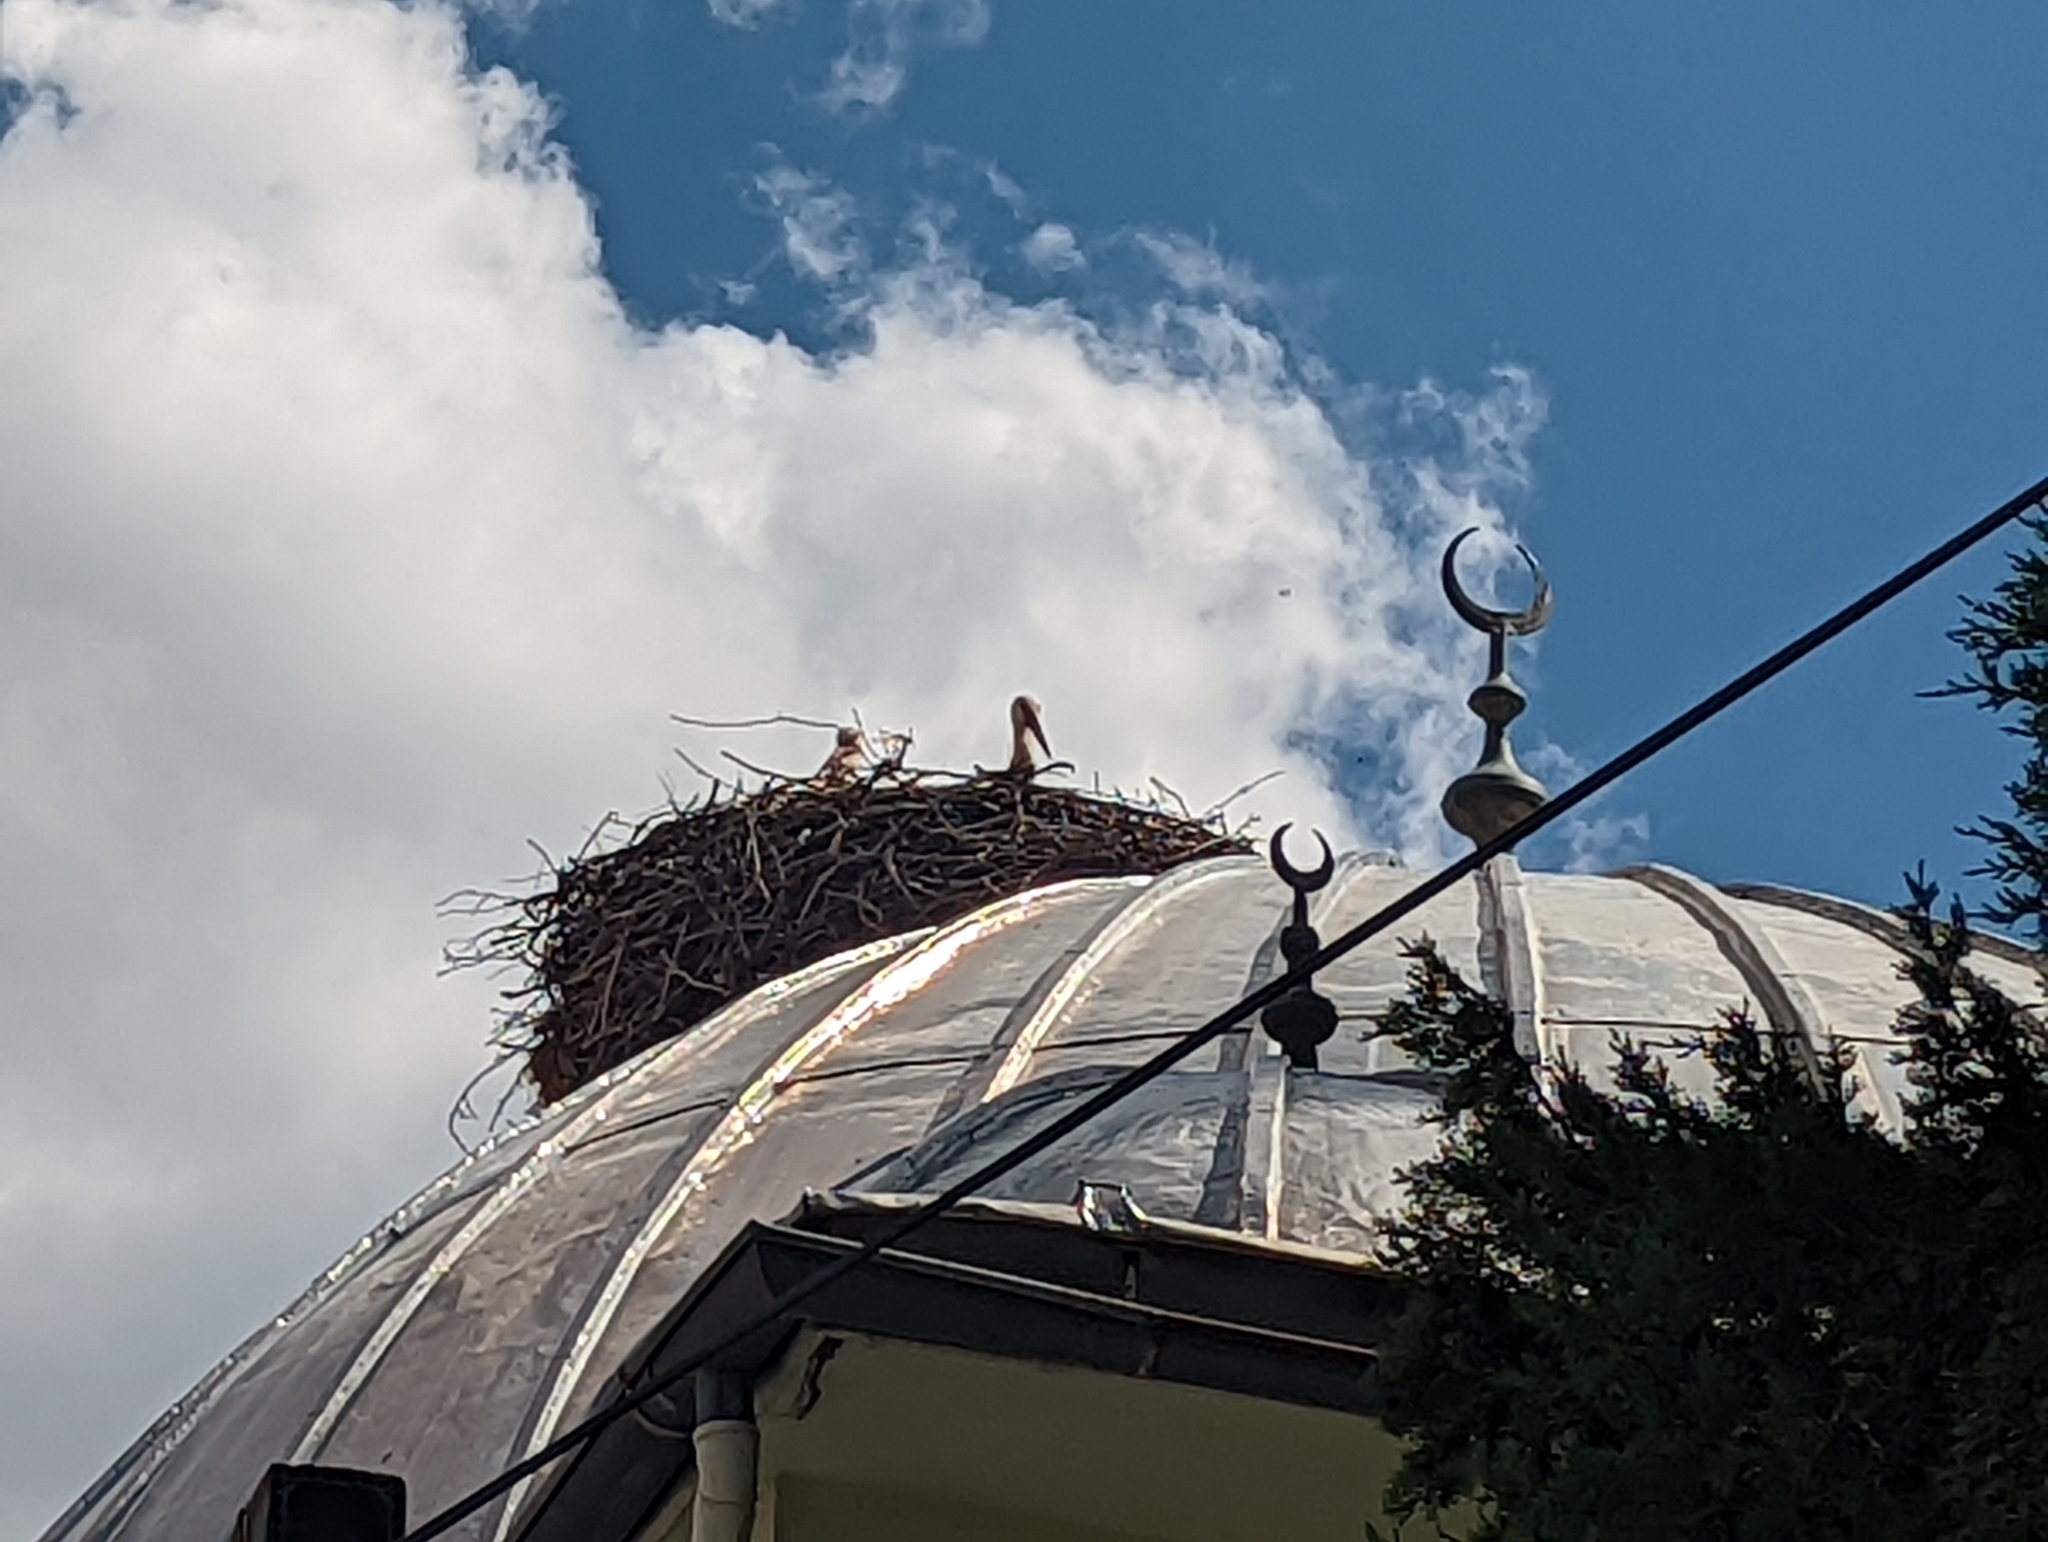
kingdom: Animalia
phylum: Chordata
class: Aves
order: Ciconiiformes
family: Ciconiidae
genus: Ciconia
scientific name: Ciconia ciconia
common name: White stork
